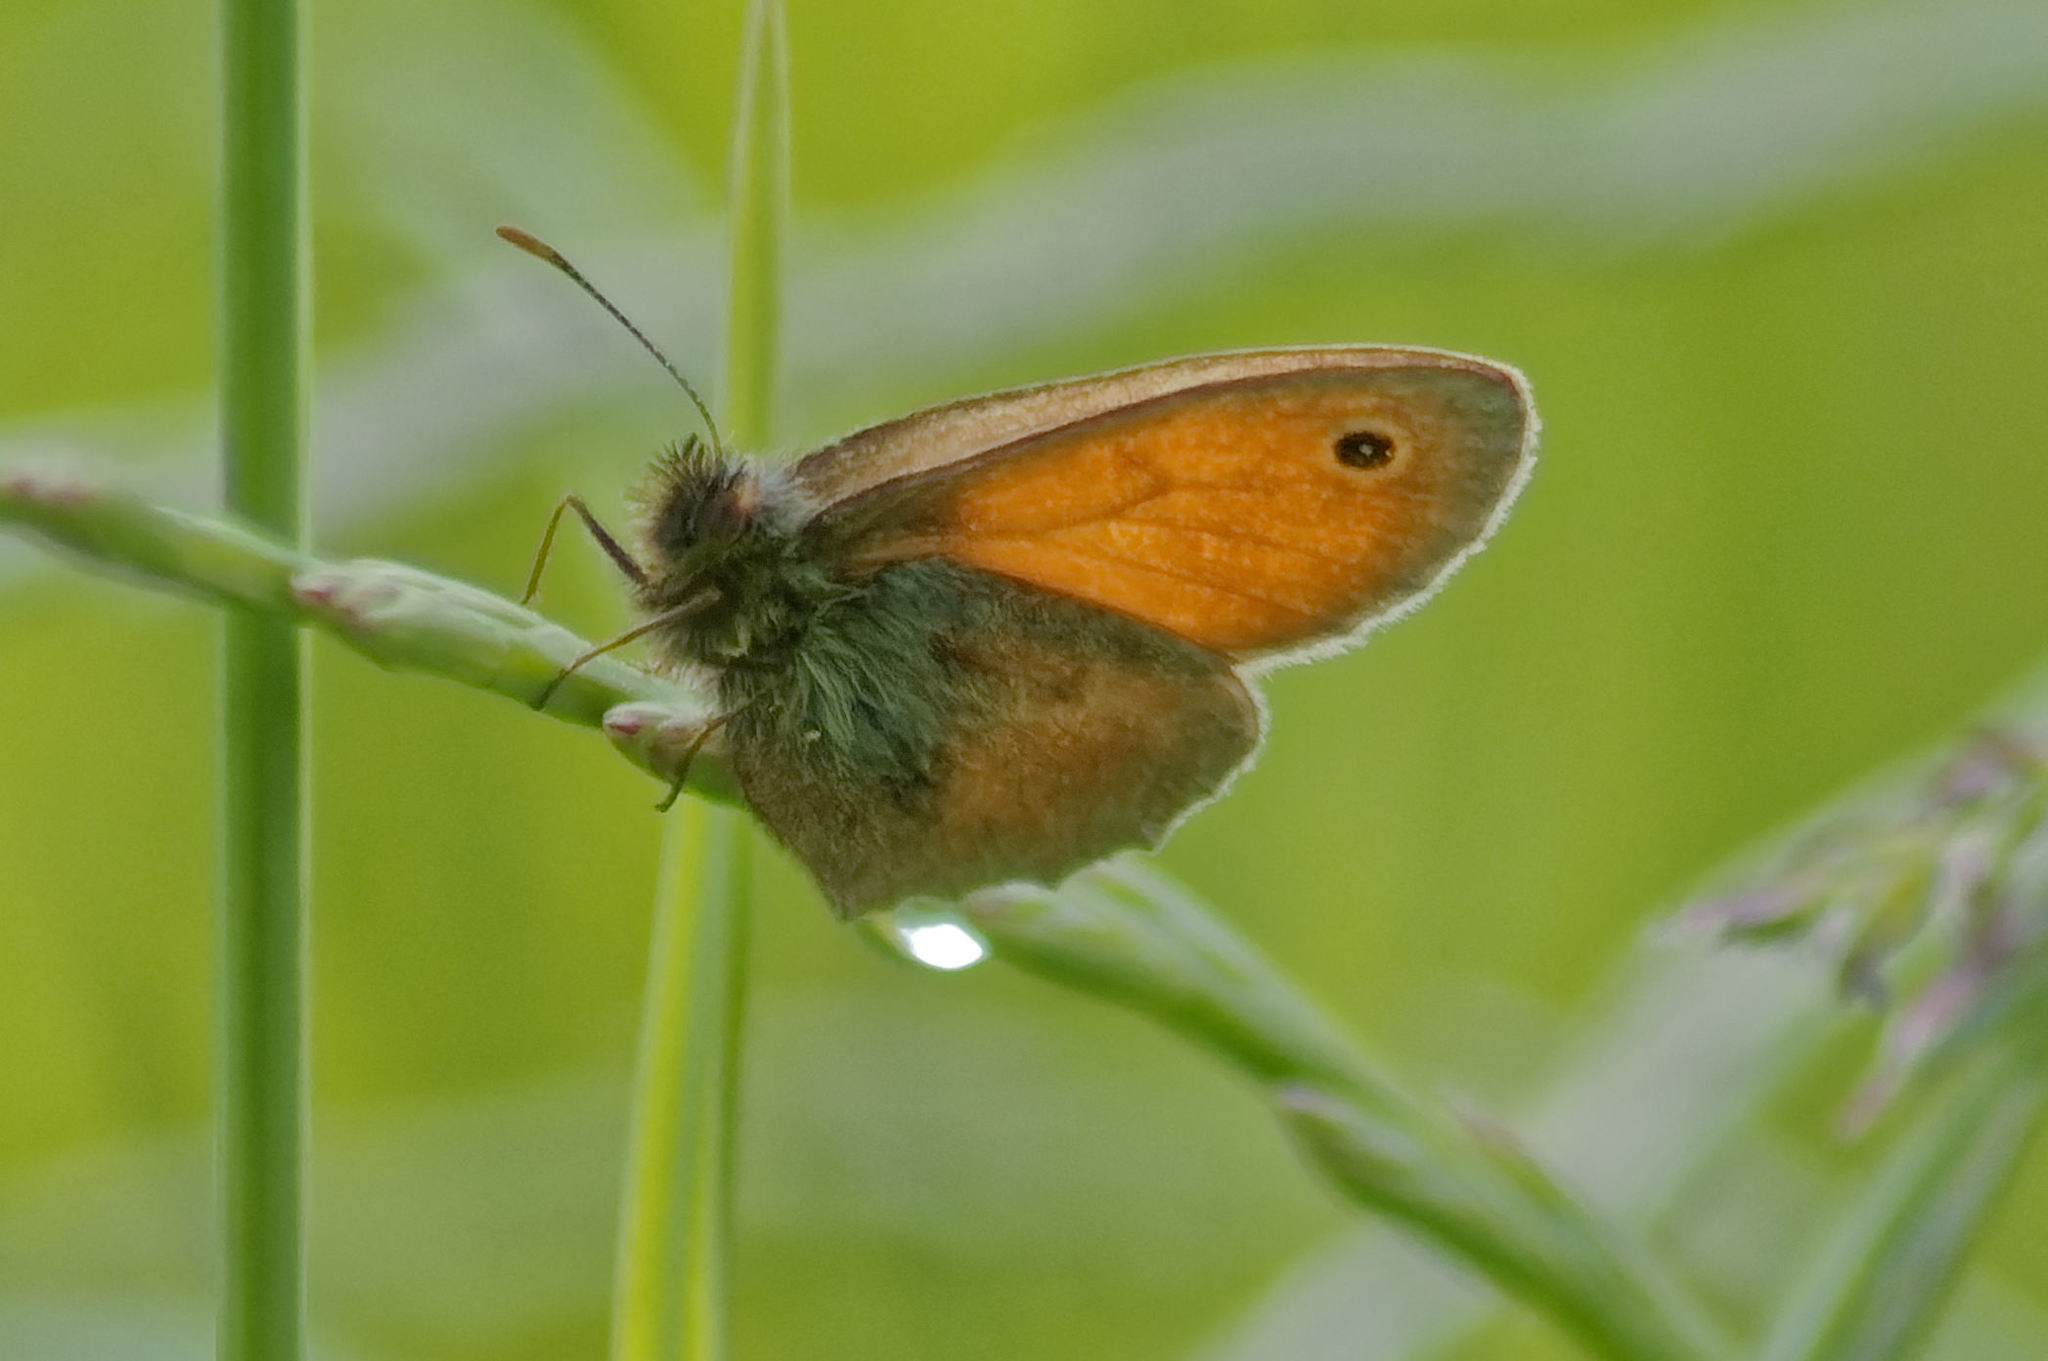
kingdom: Animalia
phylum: Arthropoda
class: Insecta
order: Lepidoptera
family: Nymphalidae
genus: Coenonympha
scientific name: Coenonympha pamphilus
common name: Small heath
